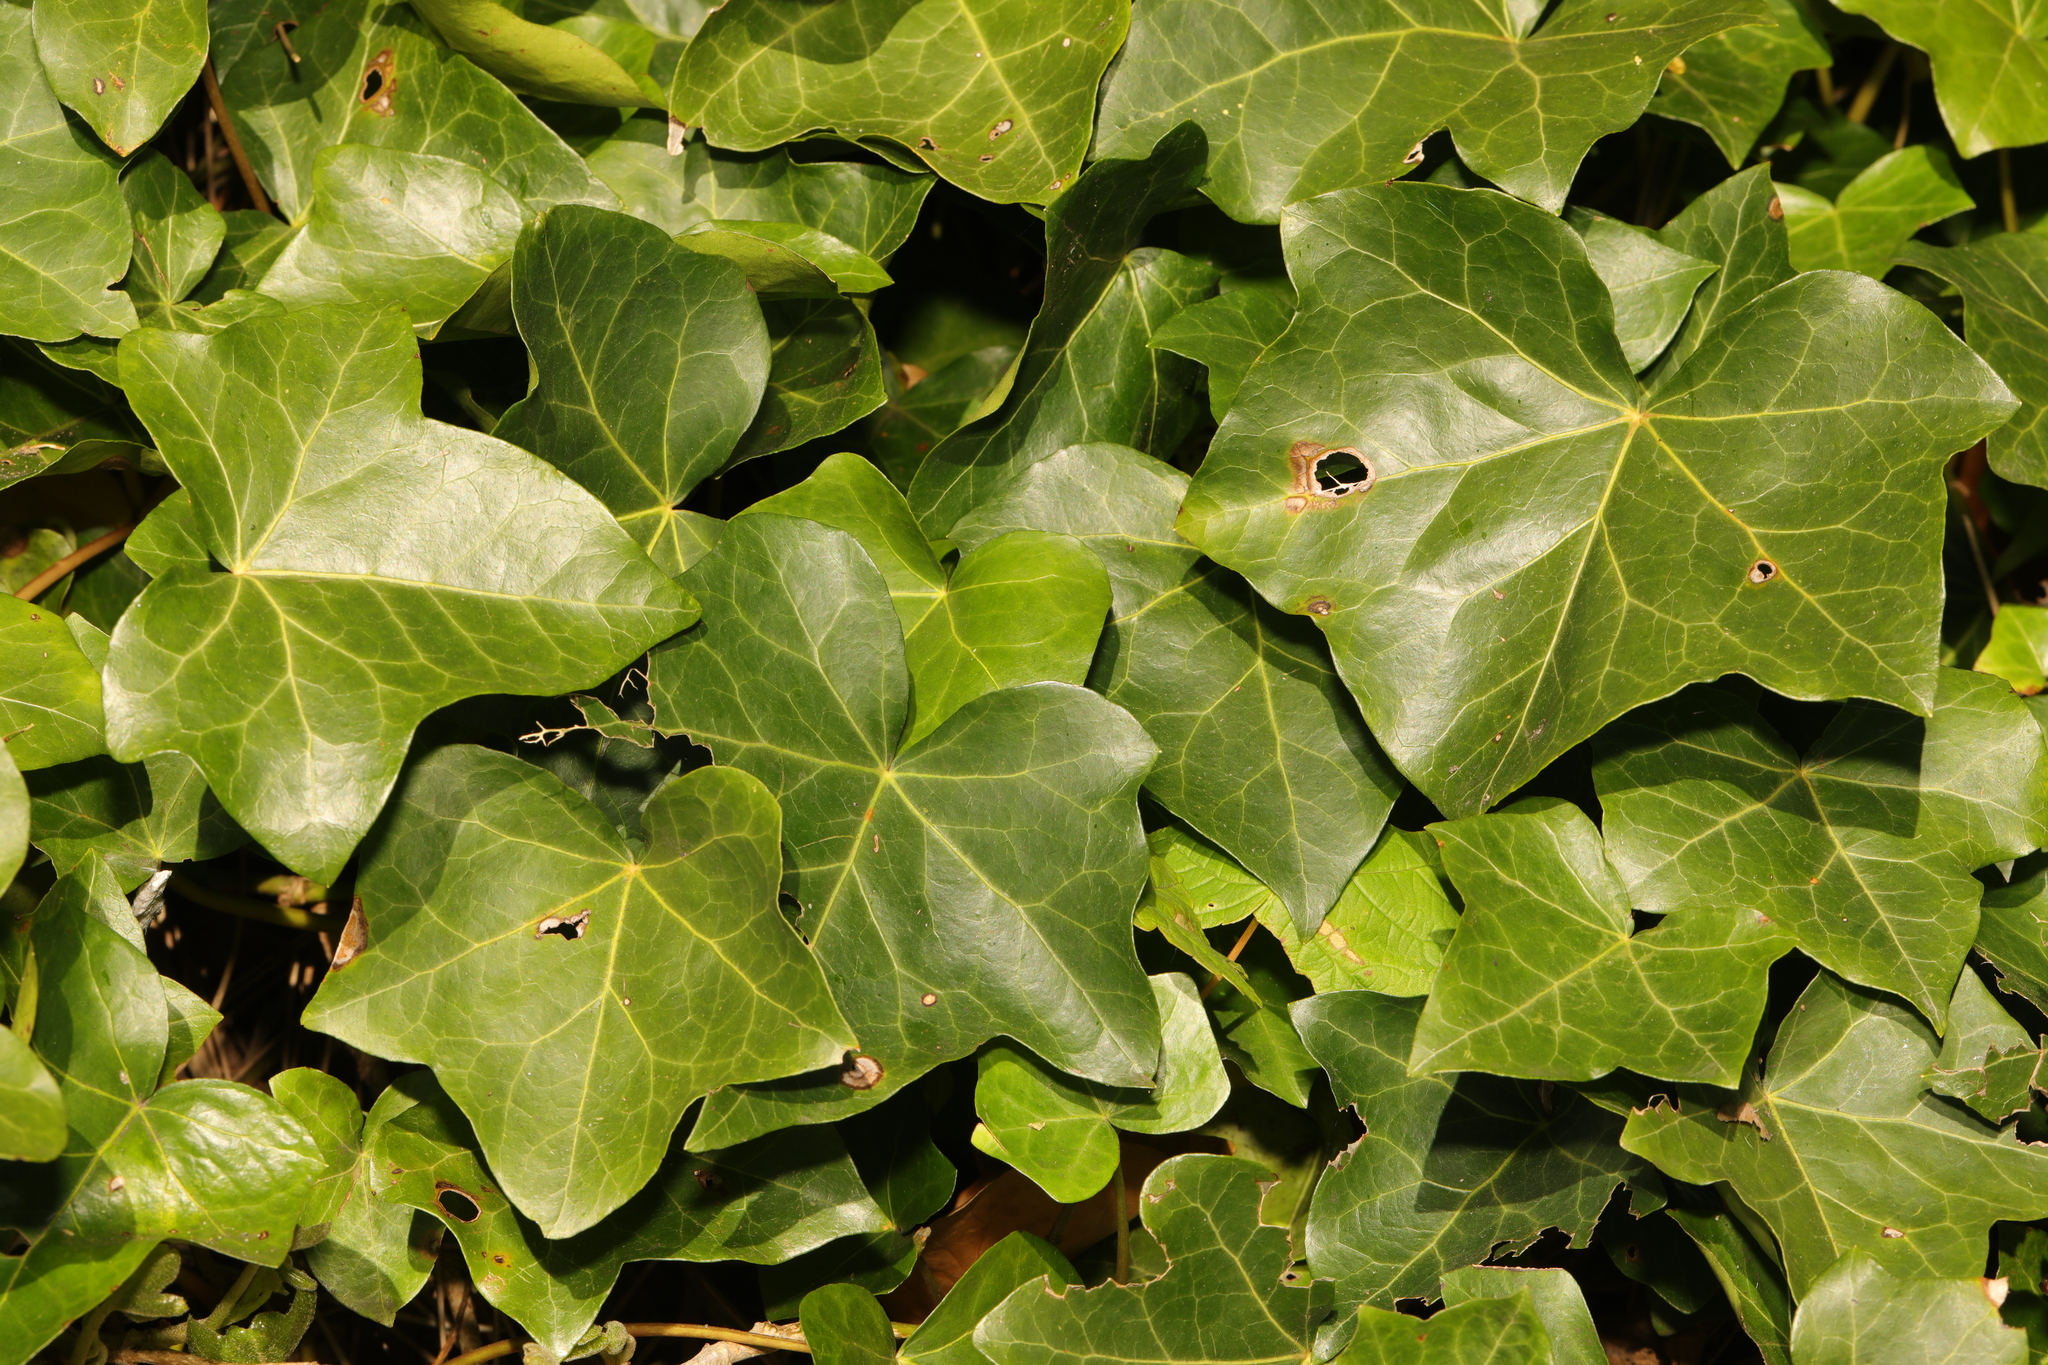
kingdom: Plantae
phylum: Tracheophyta
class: Magnoliopsida
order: Apiales
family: Araliaceae
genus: Hedera
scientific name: Hedera helix
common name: Ivy
